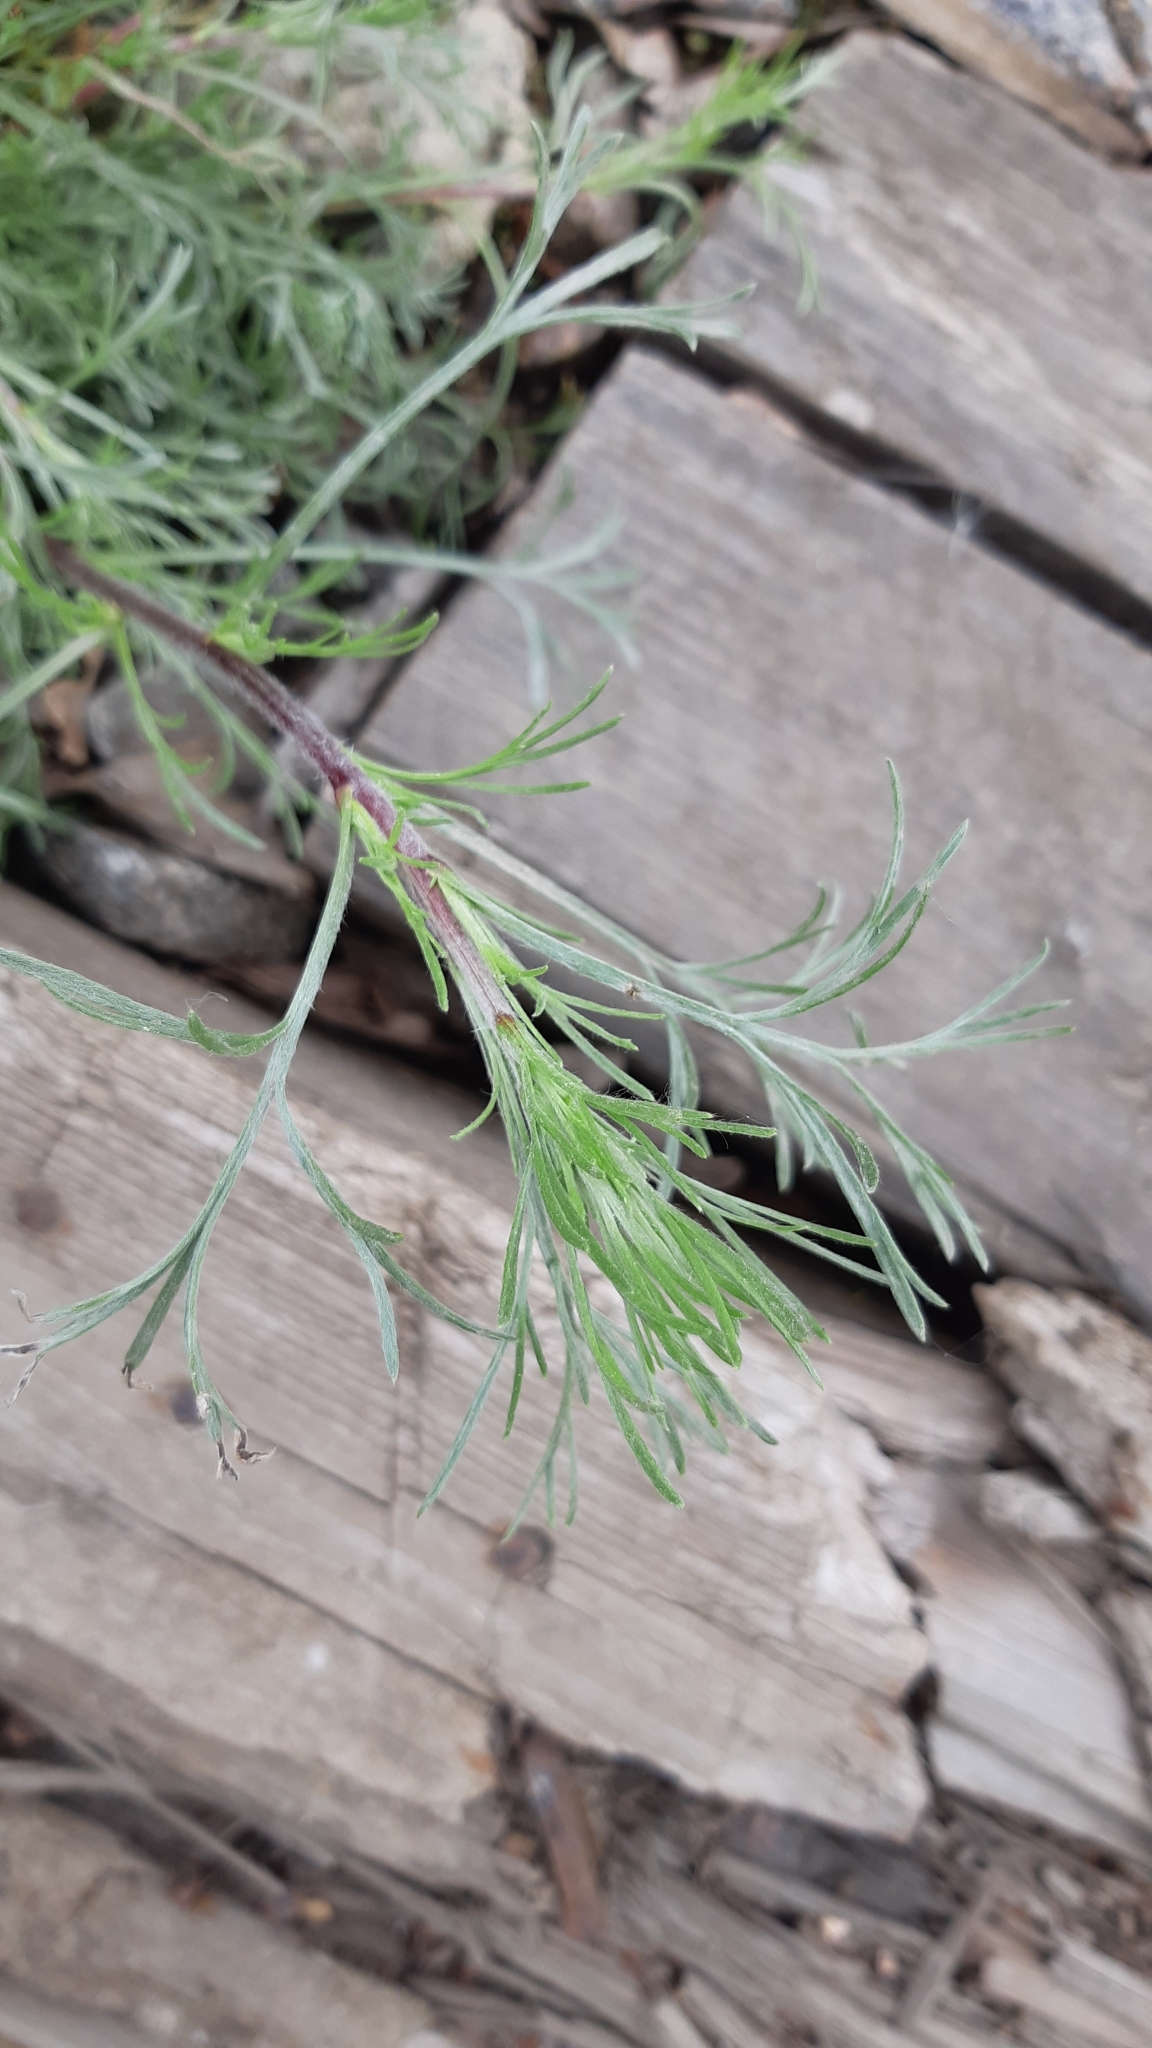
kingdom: Plantae
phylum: Tracheophyta
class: Magnoliopsida
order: Asterales
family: Asteraceae
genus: Artemisia
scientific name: Artemisia campestris
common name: Field wormwood
